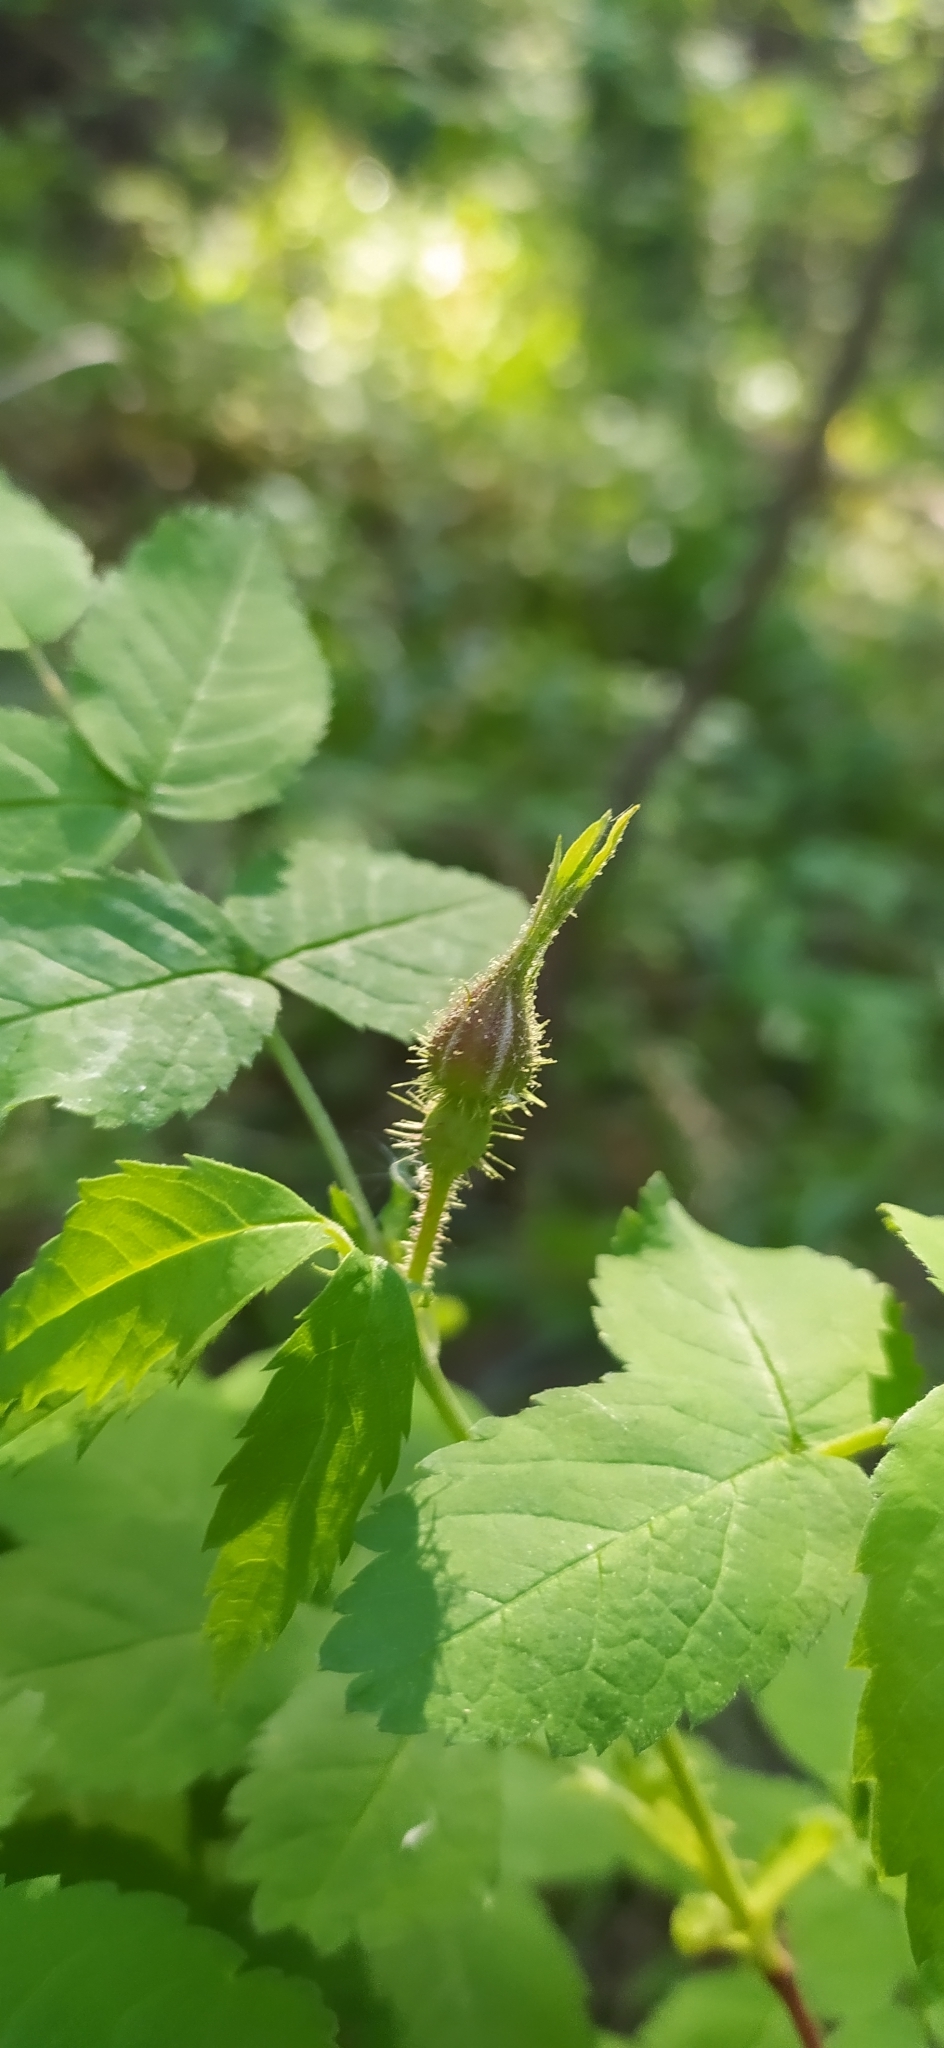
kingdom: Plantae
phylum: Tracheophyta
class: Magnoliopsida
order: Rosales
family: Rosaceae
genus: Rosa
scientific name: Rosa acicularis
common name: Prickly rose
